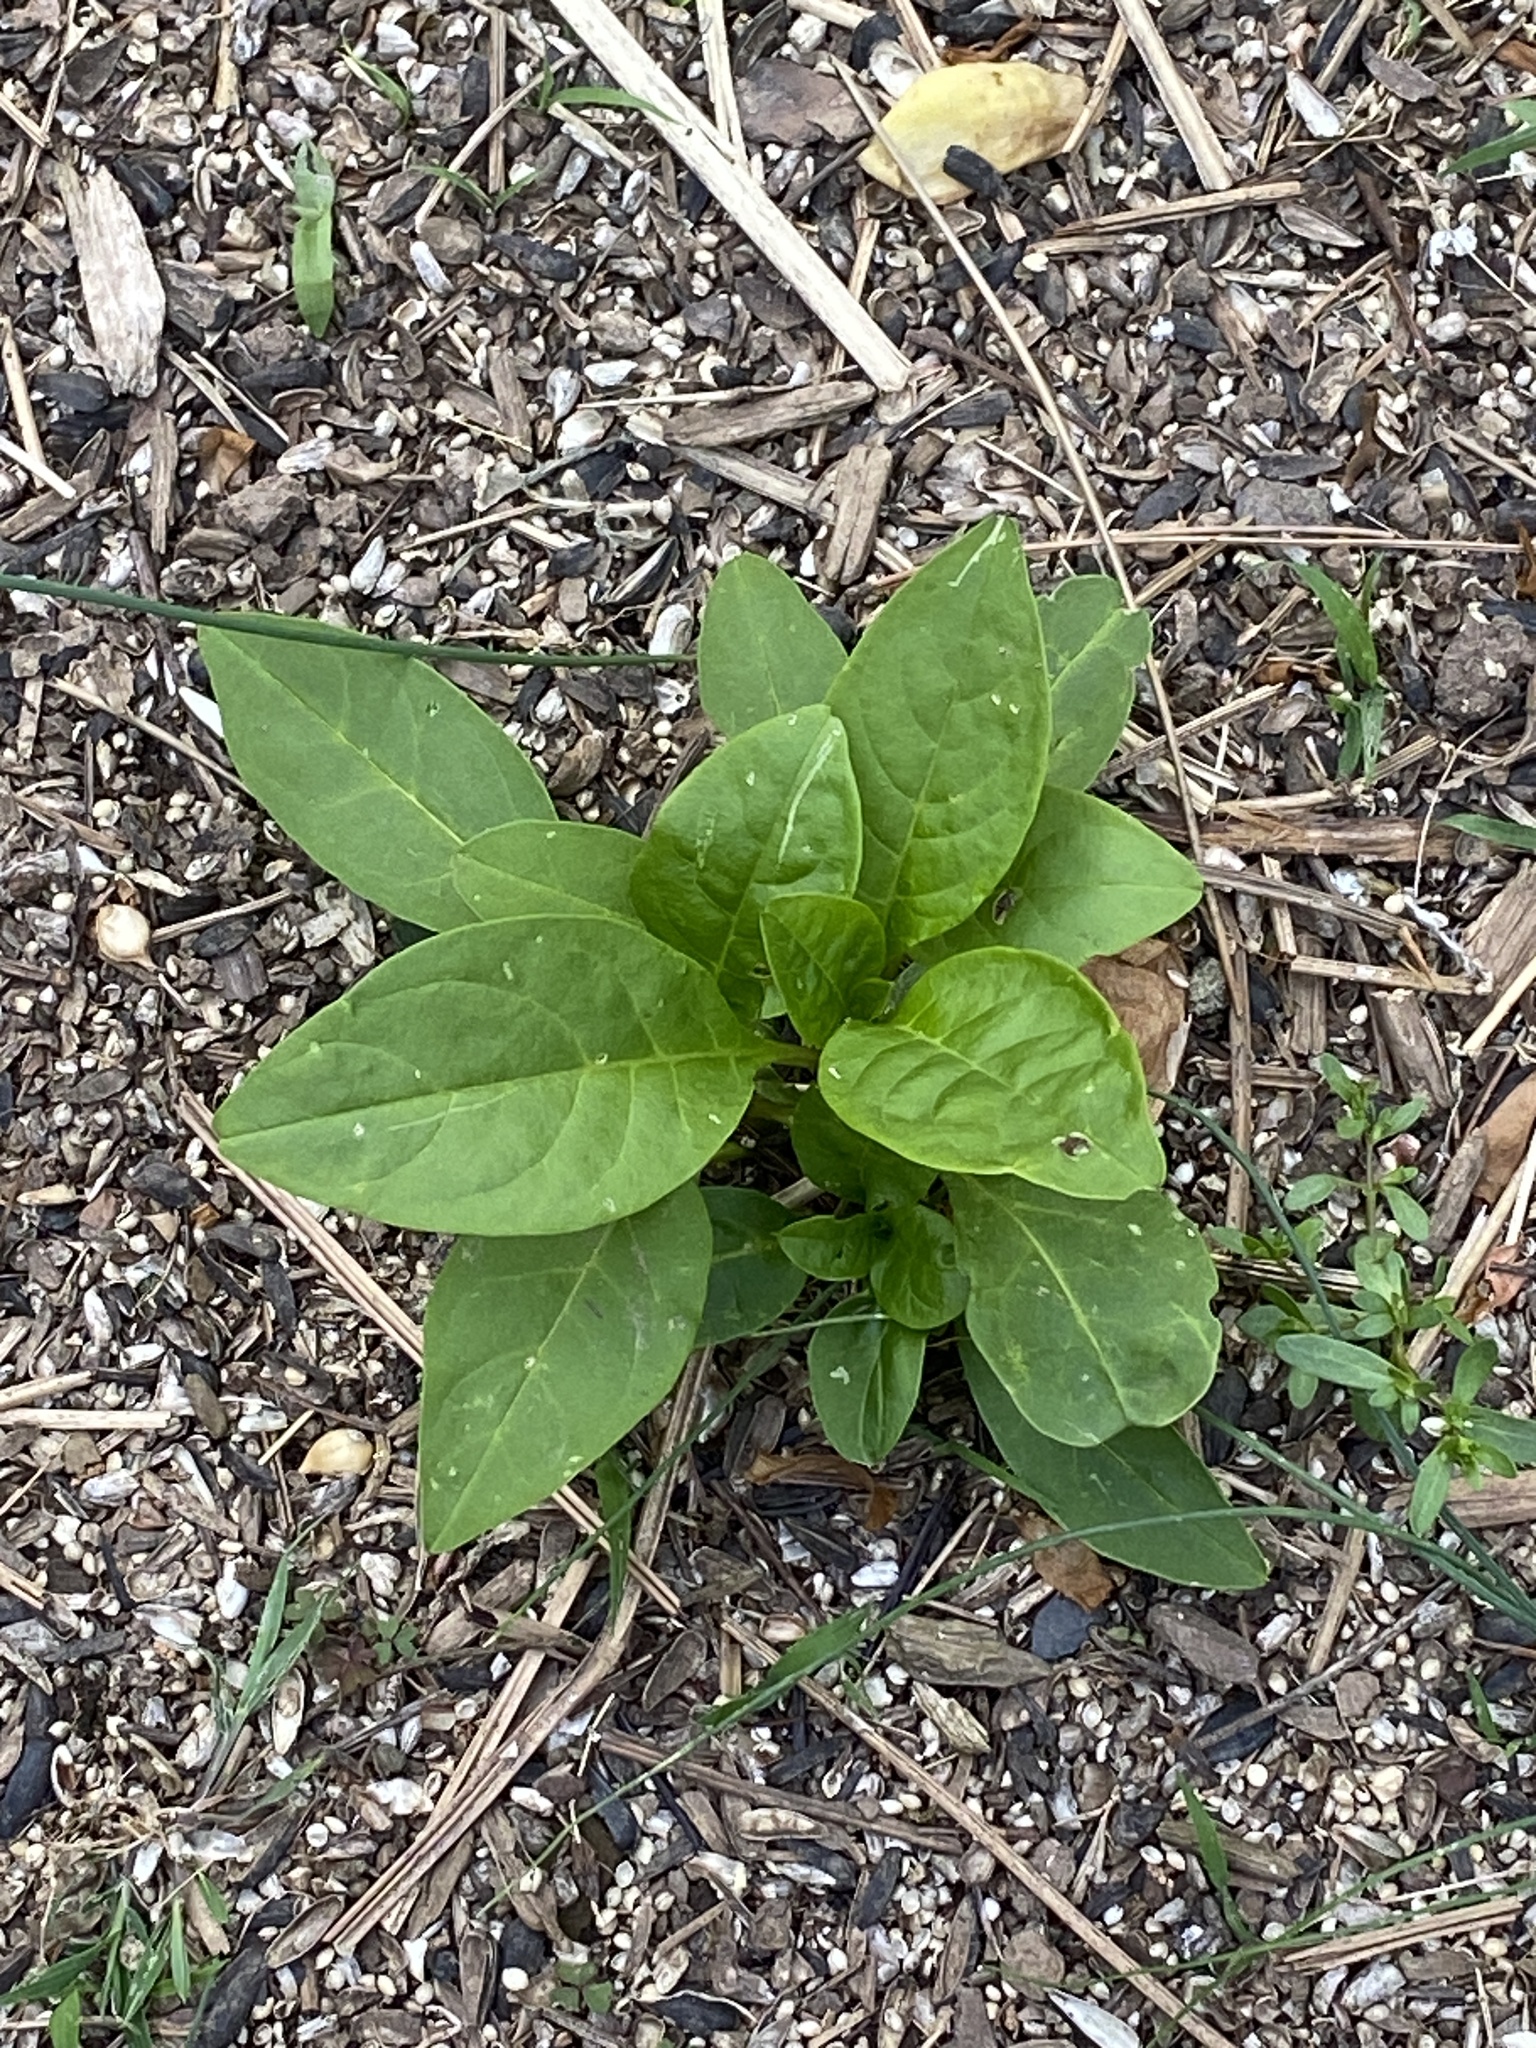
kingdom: Plantae
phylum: Tracheophyta
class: Magnoliopsida
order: Caryophyllales
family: Phytolaccaceae
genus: Phytolacca
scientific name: Phytolacca americana
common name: American pokeweed
